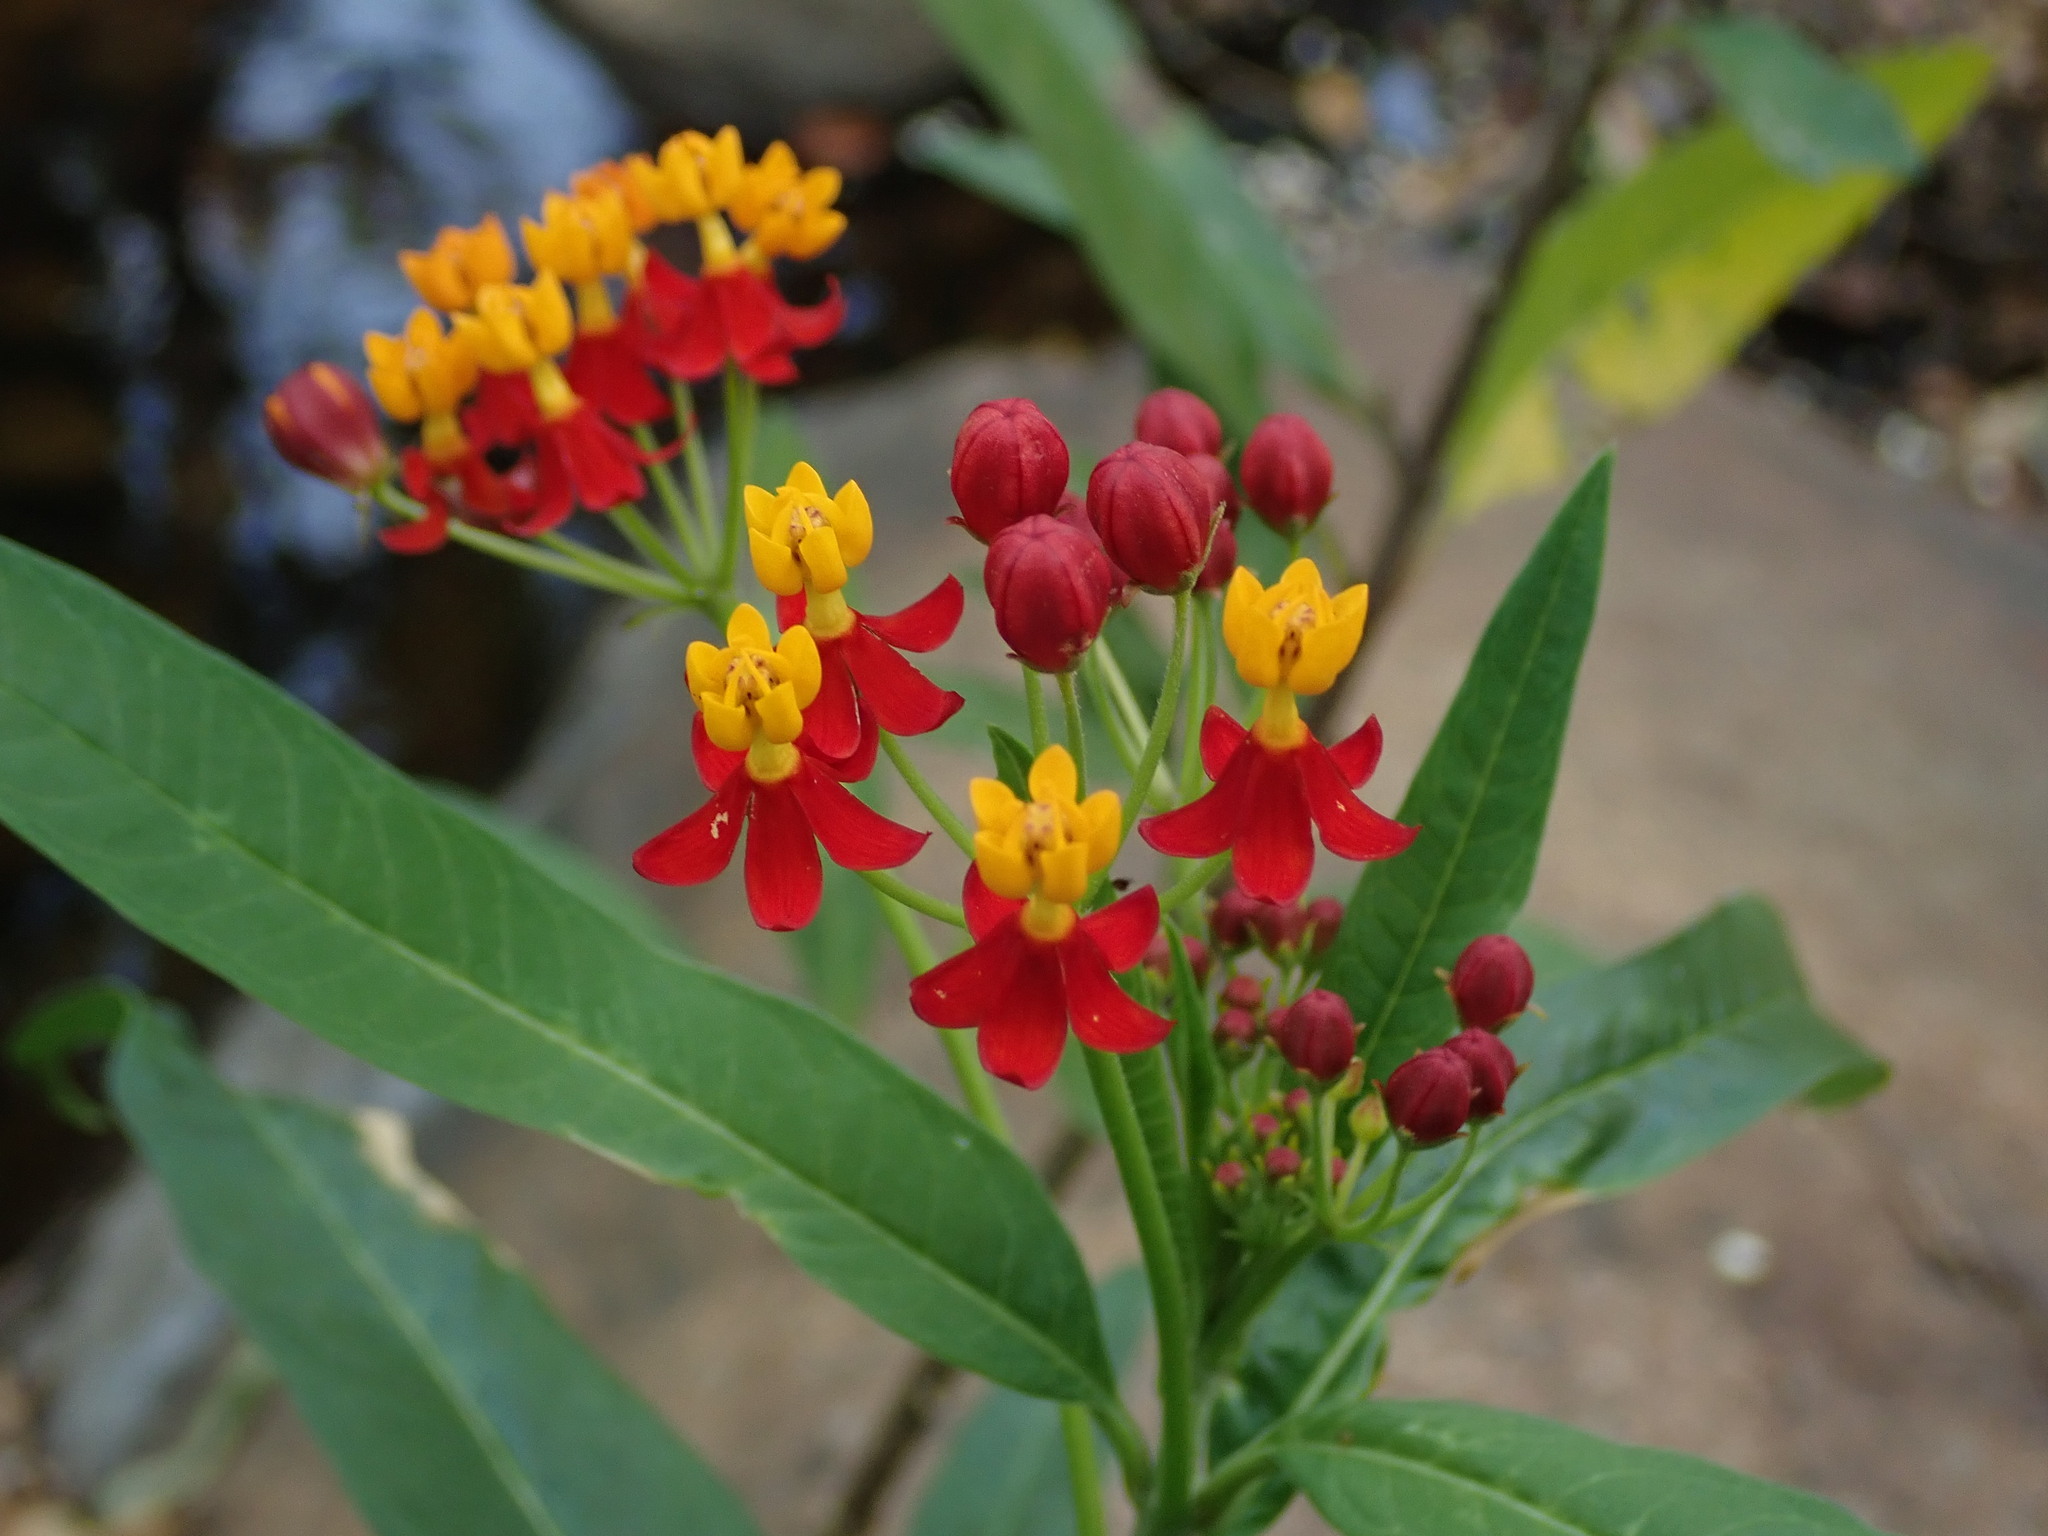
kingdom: Plantae
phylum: Tracheophyta
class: Magnoliopsida
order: Gentianales
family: Apocynaceae
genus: Asclepias
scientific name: Asclepias curassavica
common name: Bloodflower
